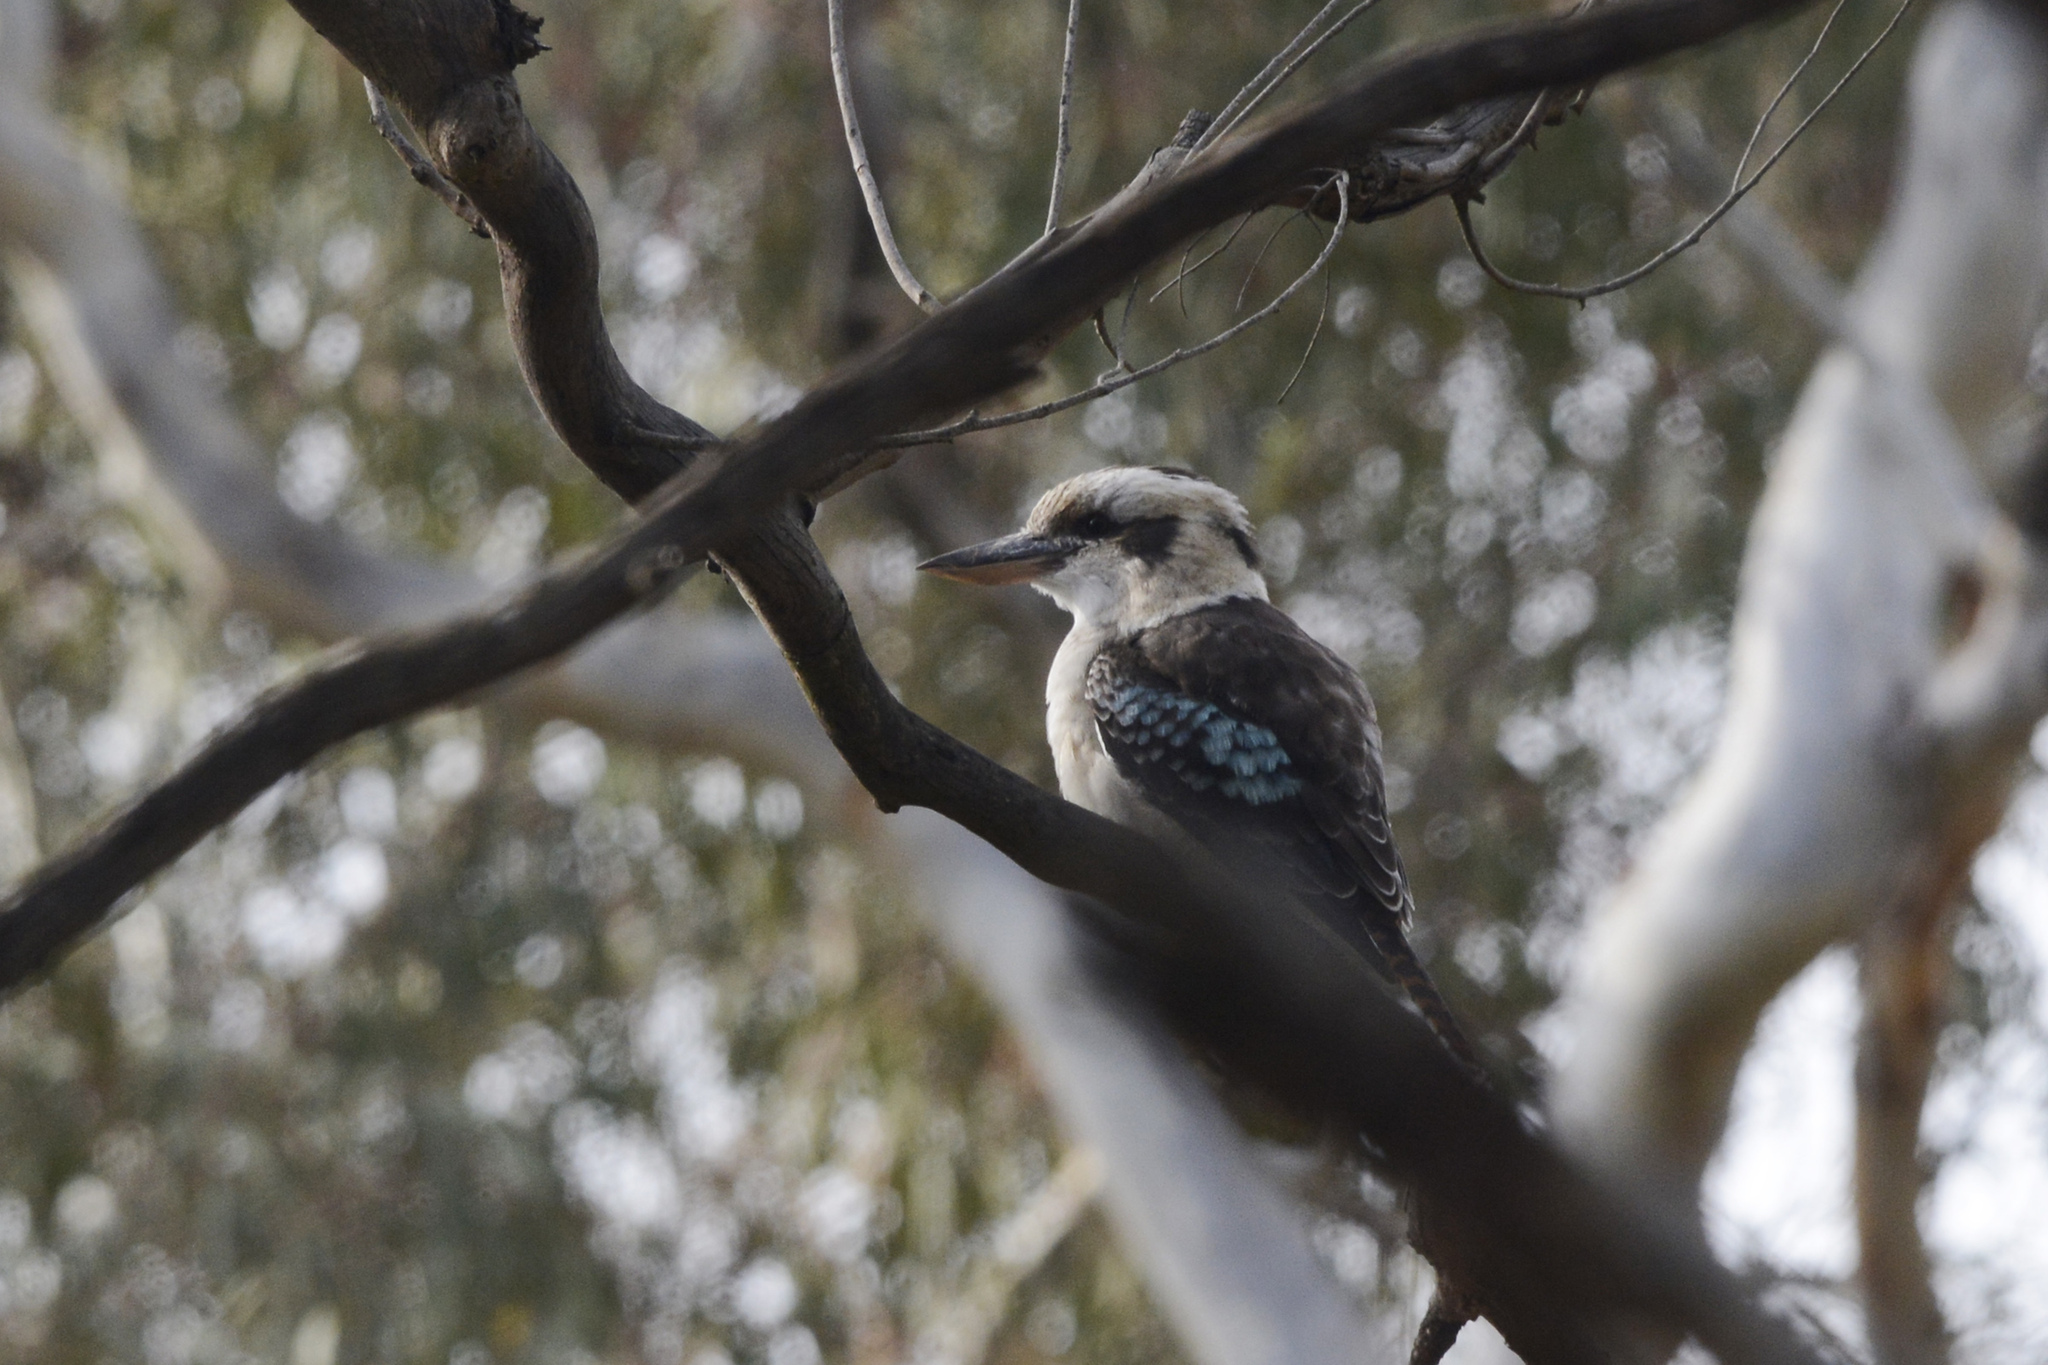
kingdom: Animalia
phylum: Chordata
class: Aves
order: Coraciiformes
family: Alcedinidae
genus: Dacelo
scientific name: Dacelo novaeguineae
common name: Laughing kookaburra
